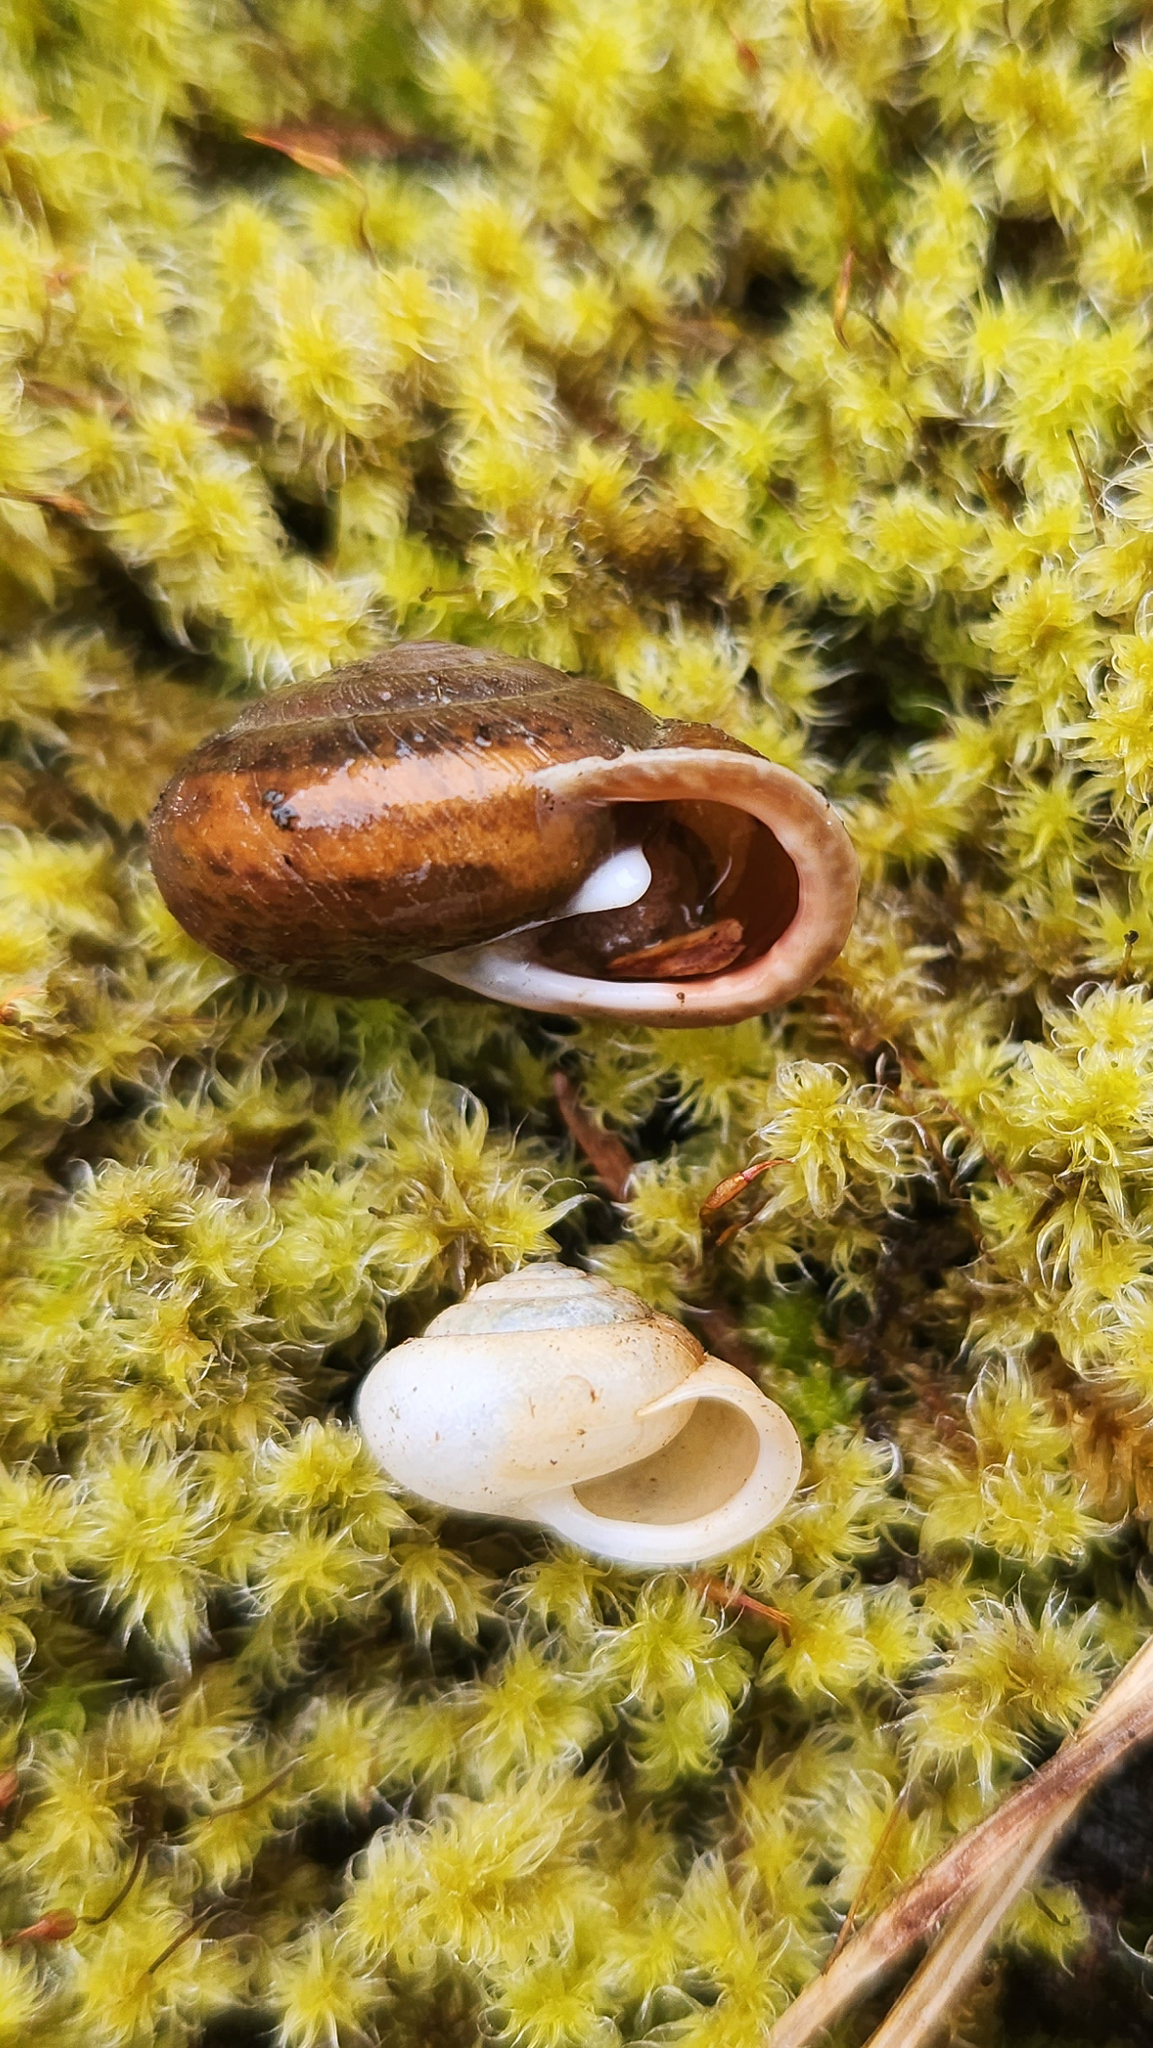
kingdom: Animalia
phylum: Mollusca
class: Gastropoda
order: Stylommatophora
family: Polygyridae
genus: Vespericola
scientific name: Vespericola columbianus
